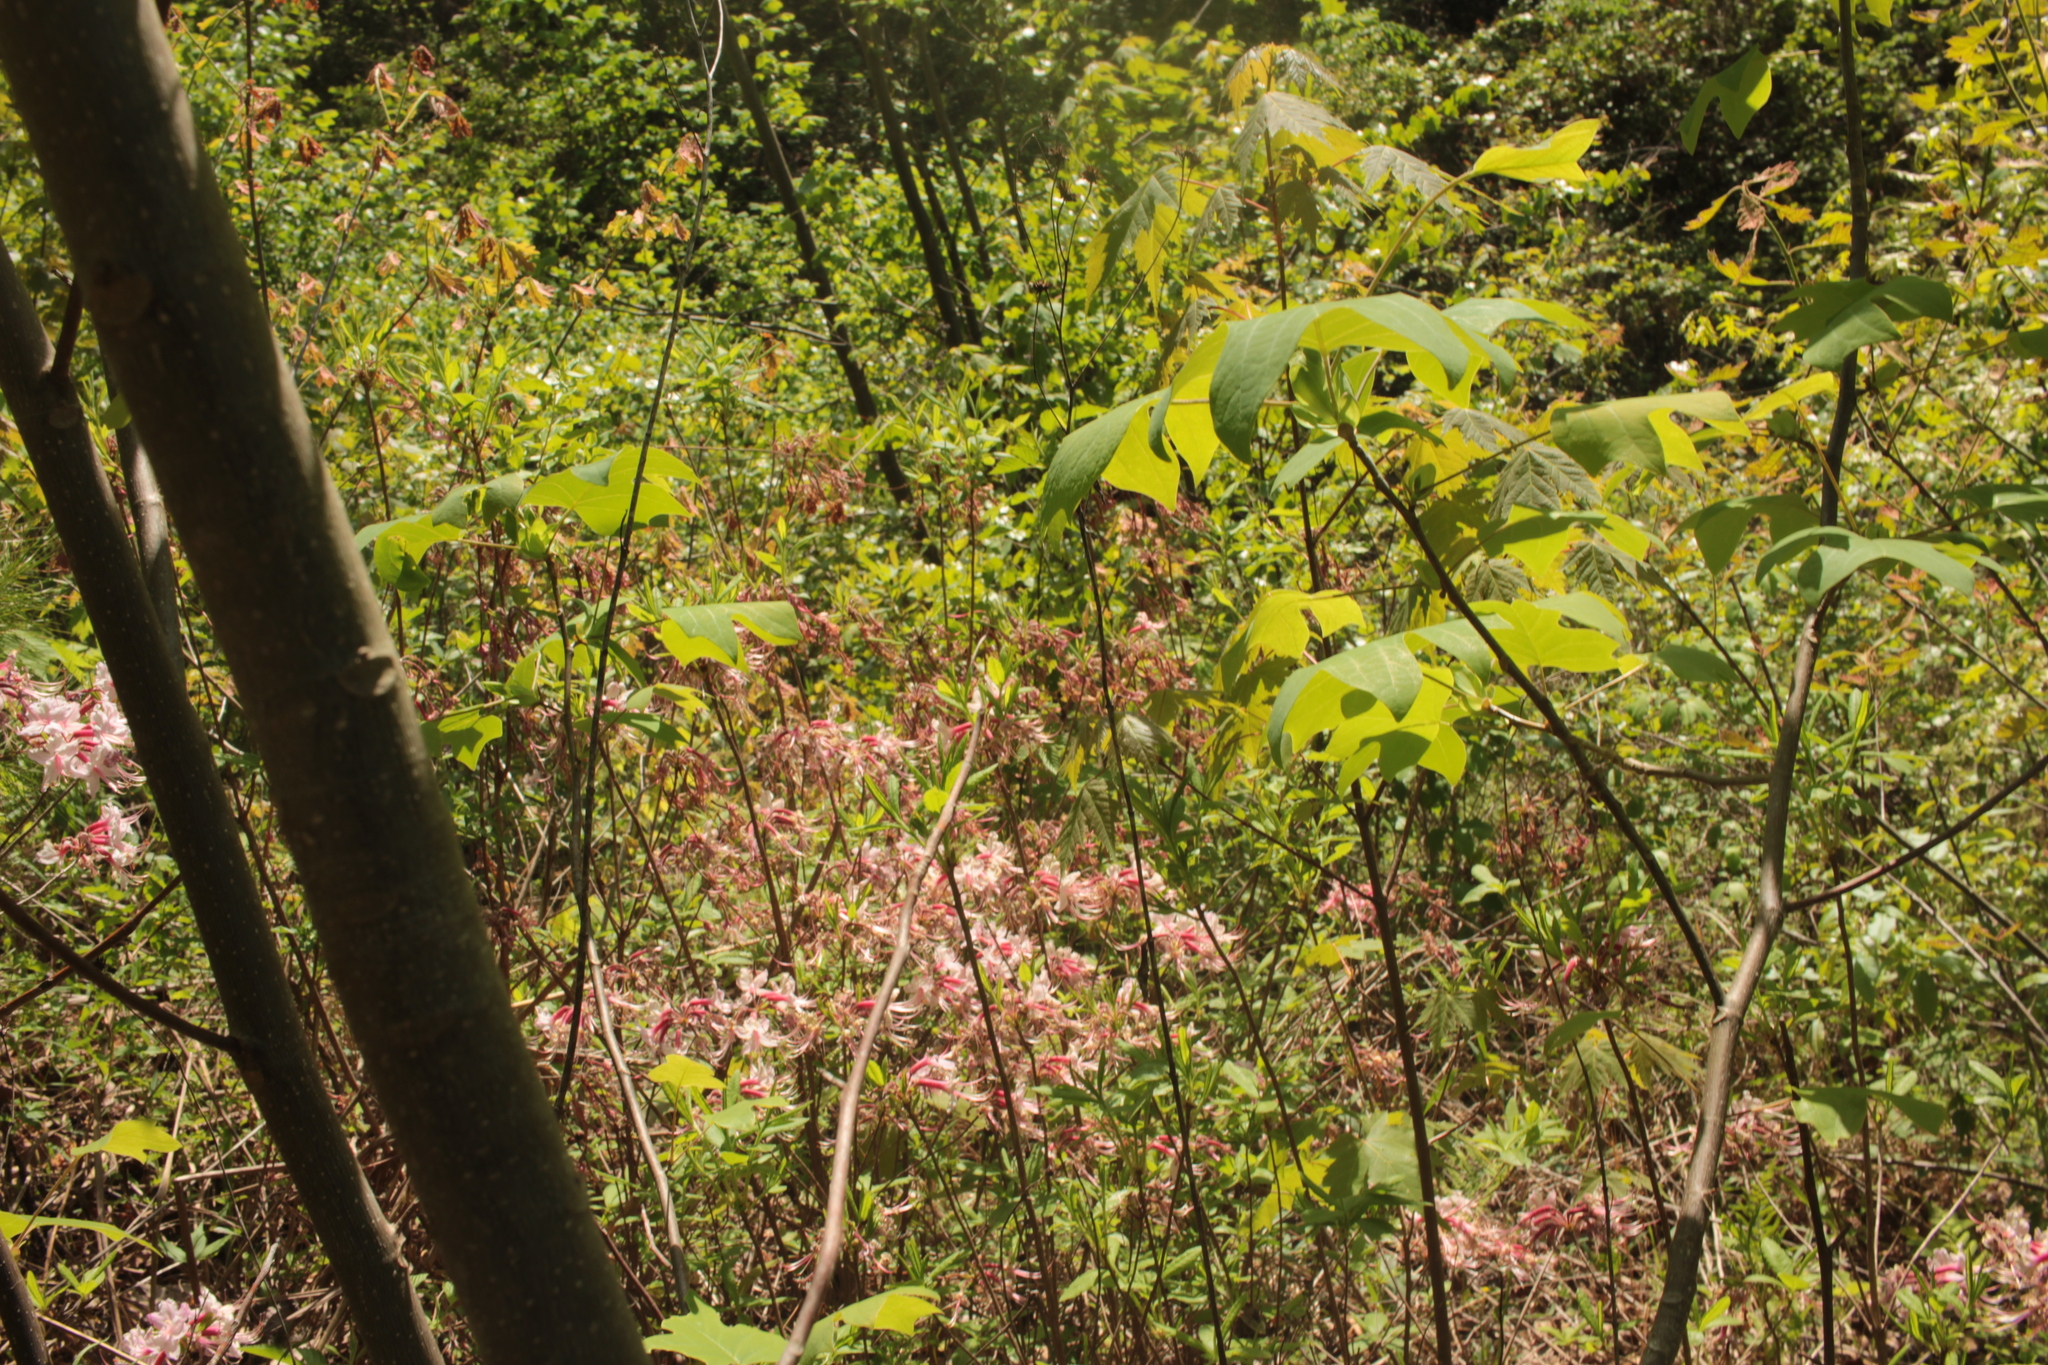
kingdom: Plantae
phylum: Tracheophyta
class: Magnoliopsida
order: Magnoliales
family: Magnoliaceae
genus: Liriodendron
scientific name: Liriodendron tulipifera
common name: Tulip tree
